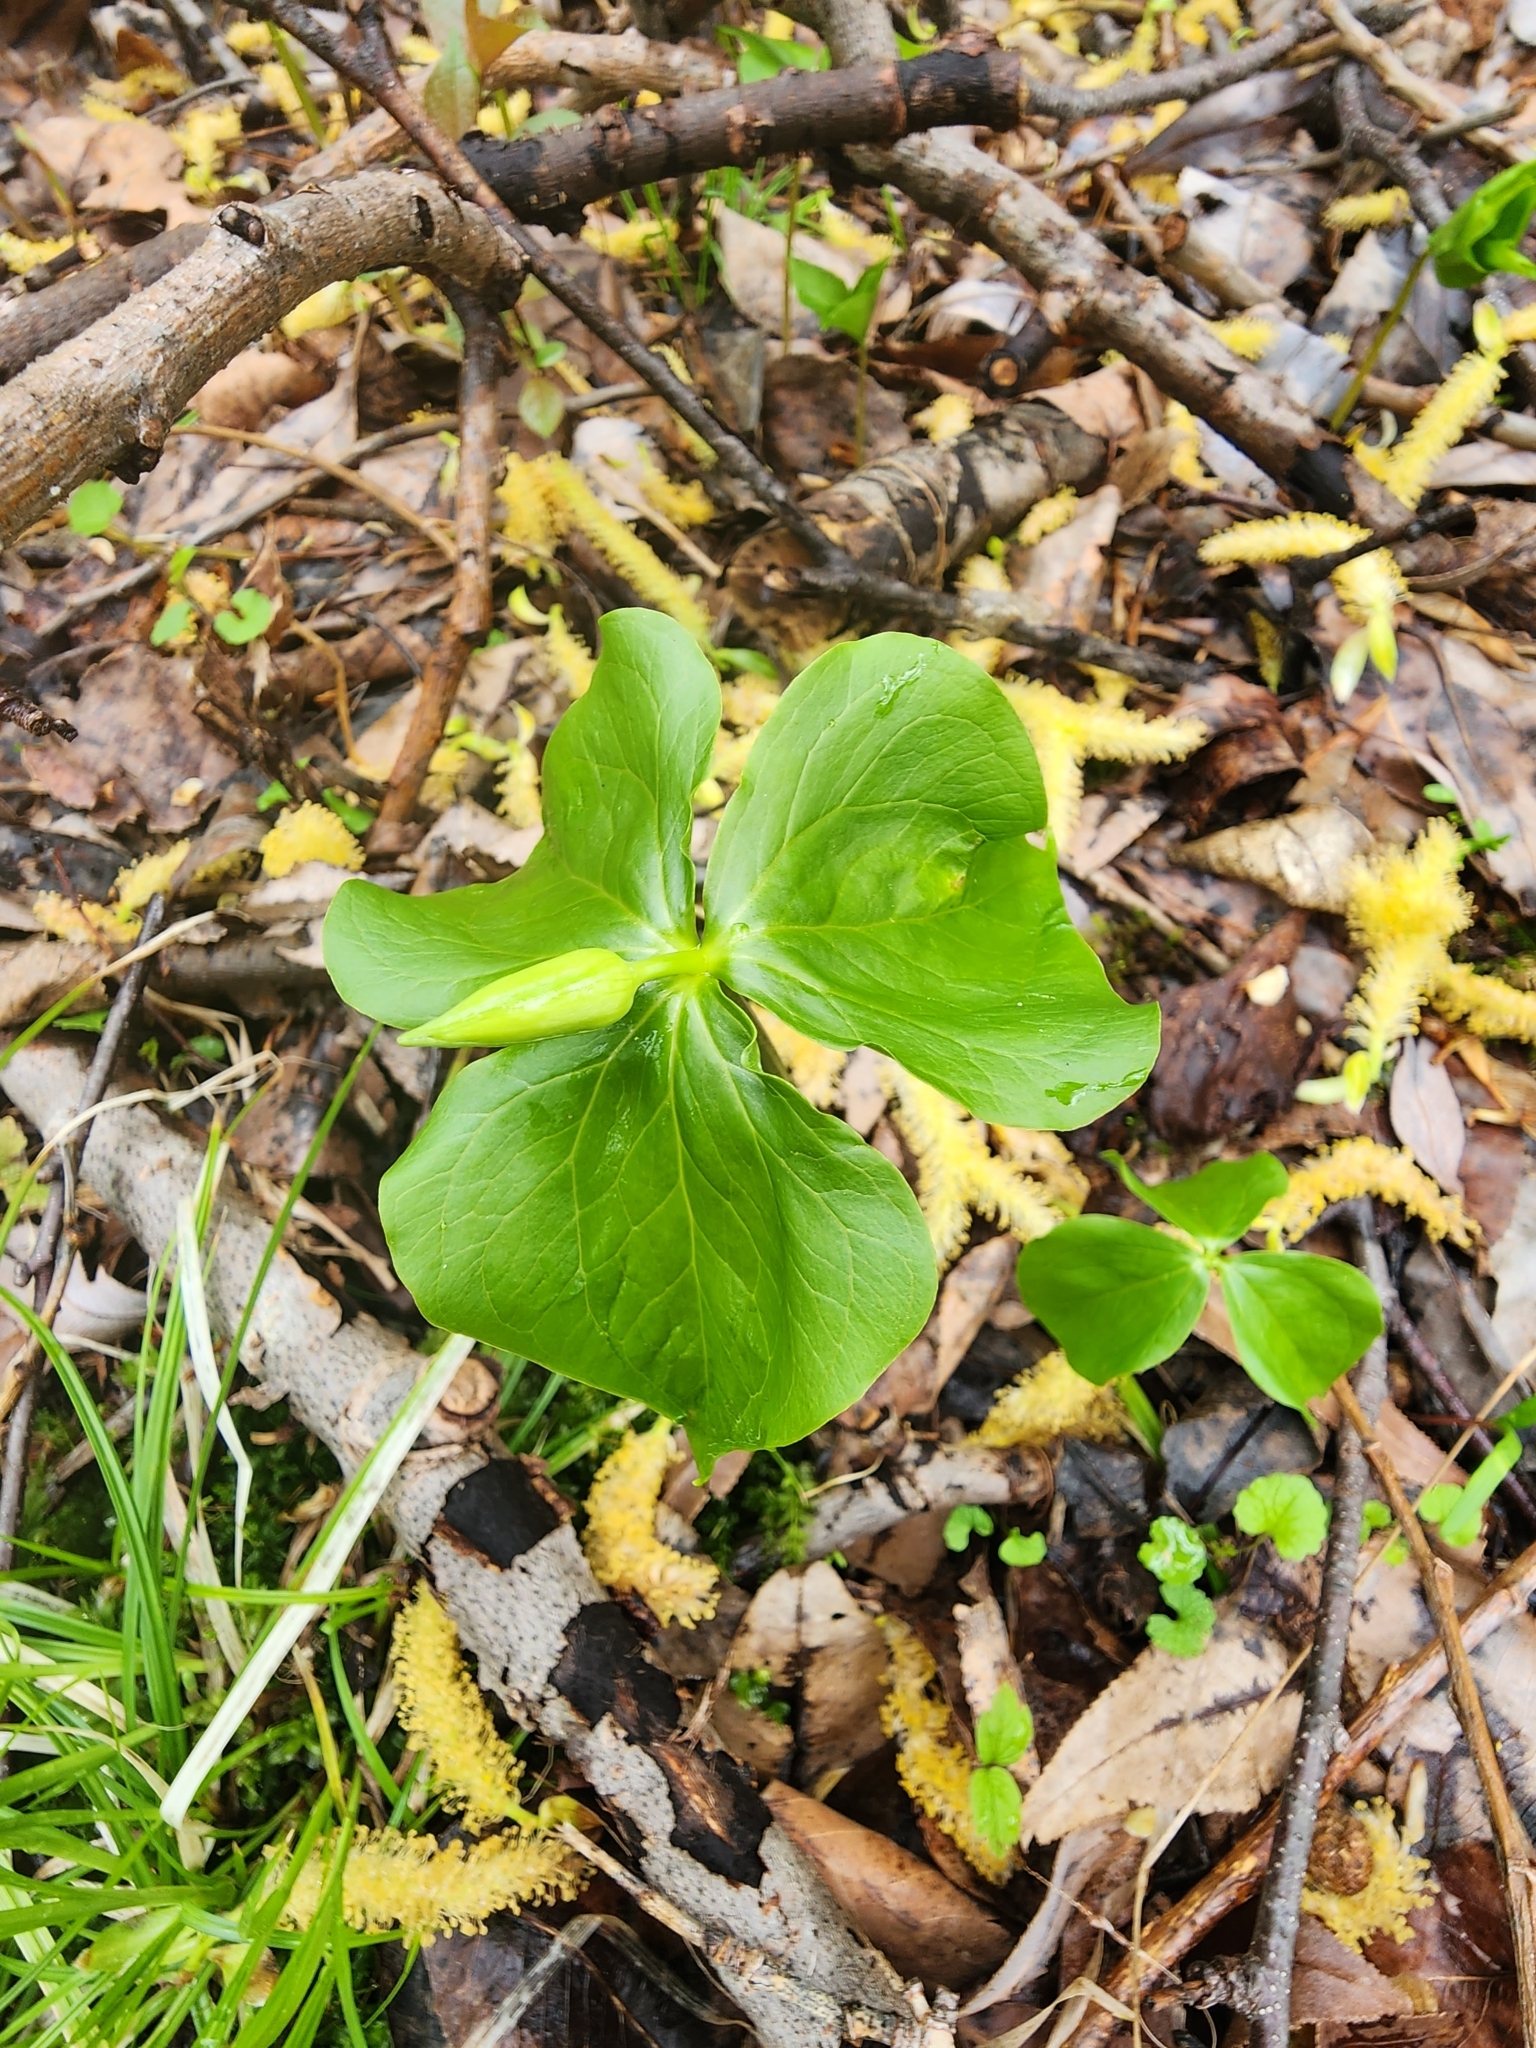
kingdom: Plantae
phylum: Tracheophyta
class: Liliopsida
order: Liliales
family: Melanthiaceae
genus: Trillium
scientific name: Trillium cernuum
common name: Nodding trillium
